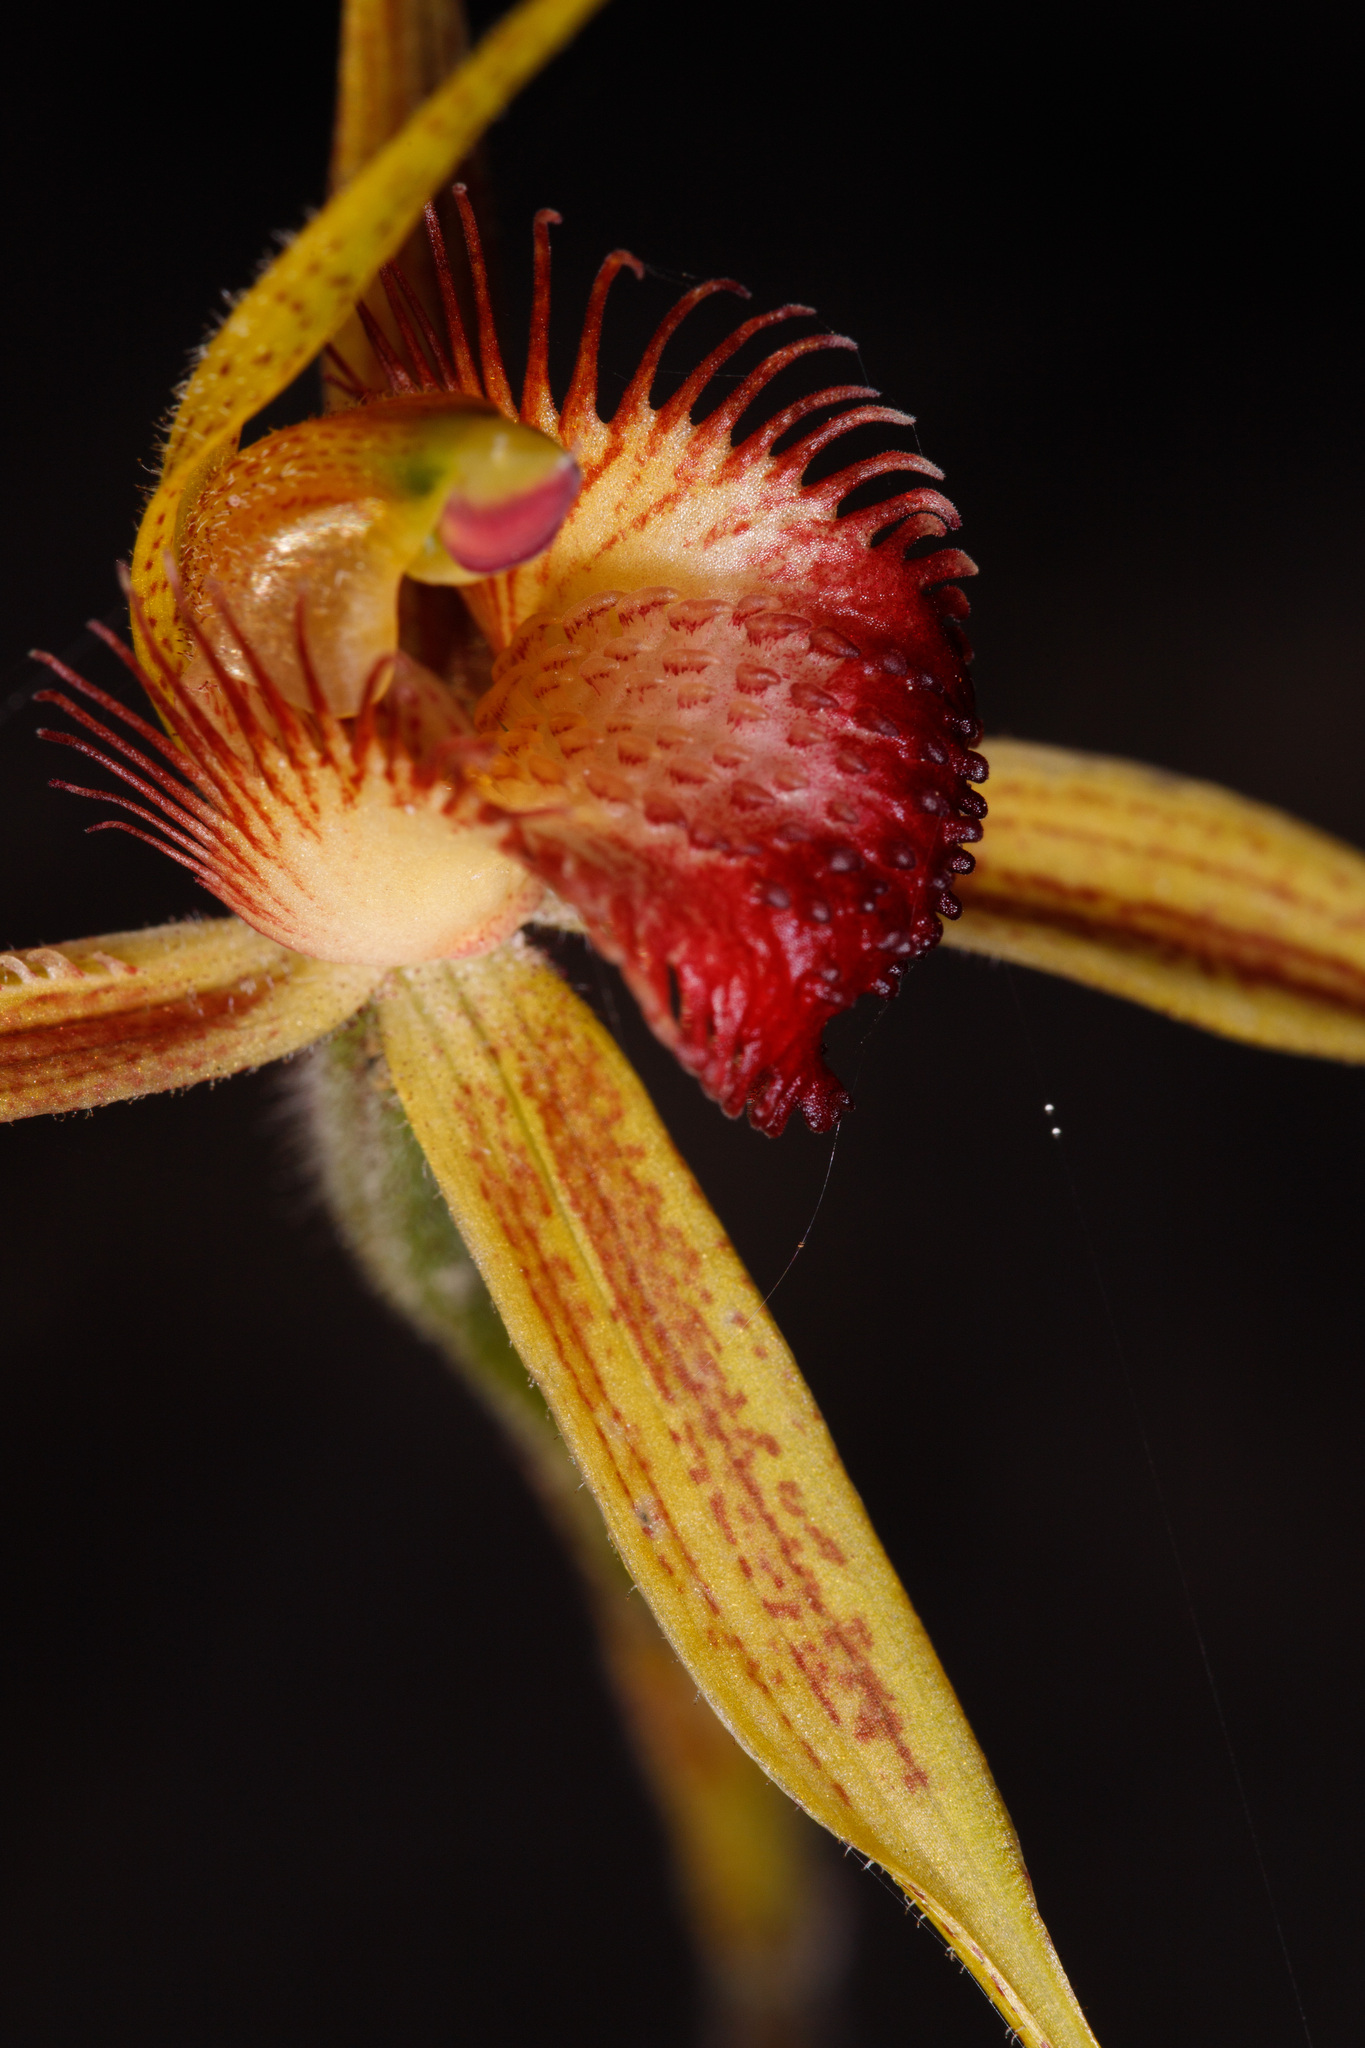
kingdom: Plantae
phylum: Tracheophyta
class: Liliopsida
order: Asparagales
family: Orchidaceae
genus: Caladenia
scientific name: Caladenia pectinata
